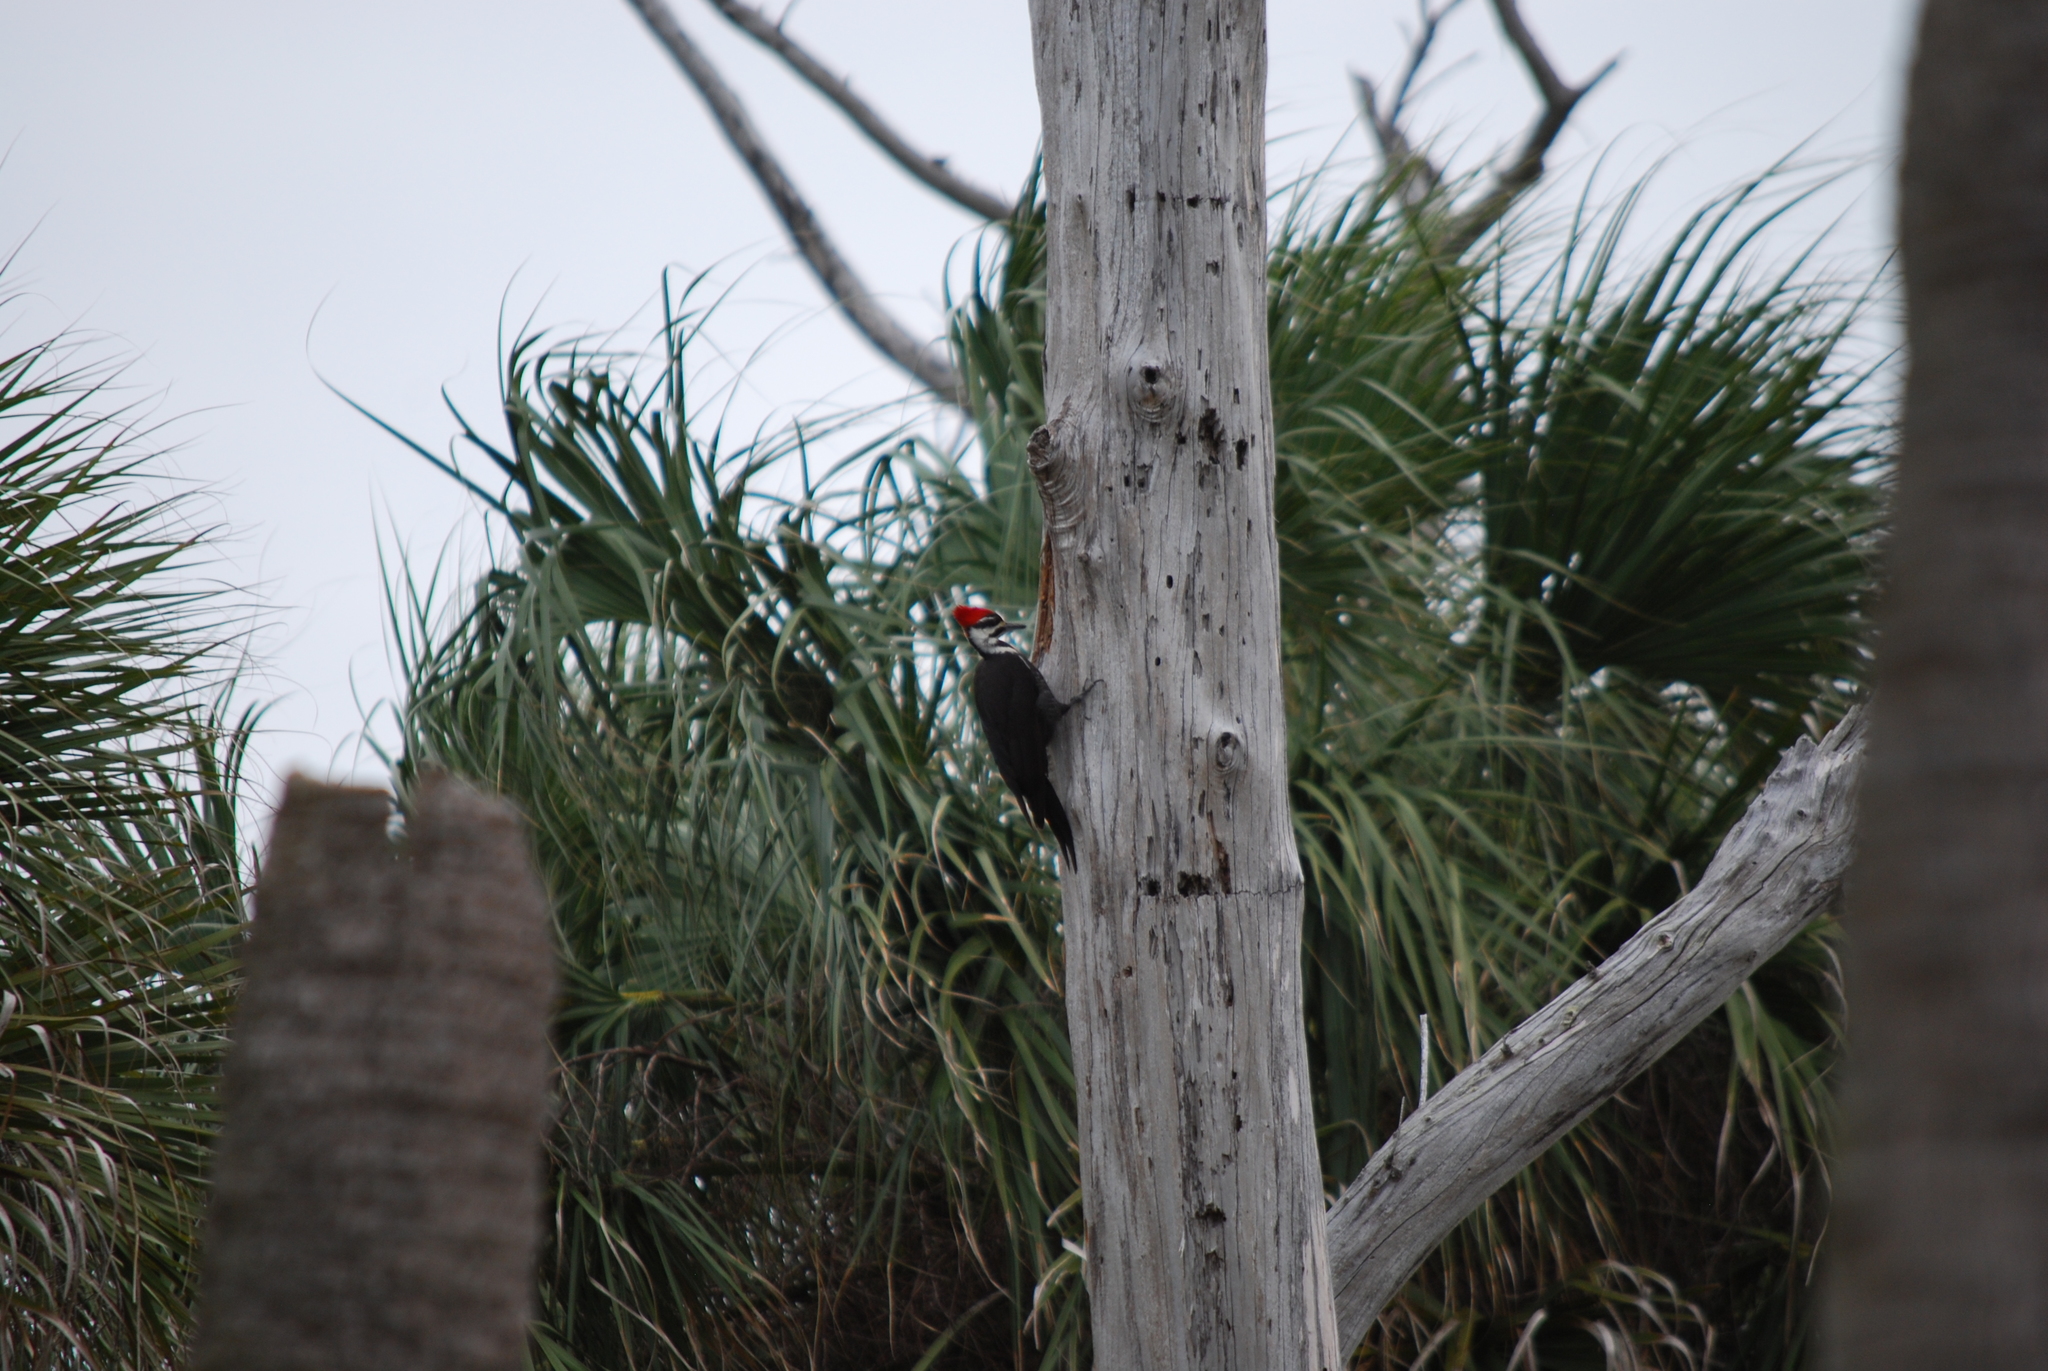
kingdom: Animalia
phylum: Chordata
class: Aves
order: Piciformes
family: Picidae
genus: Dryocopus
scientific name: Dryocopus pileatus
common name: Pileated woodpecker
